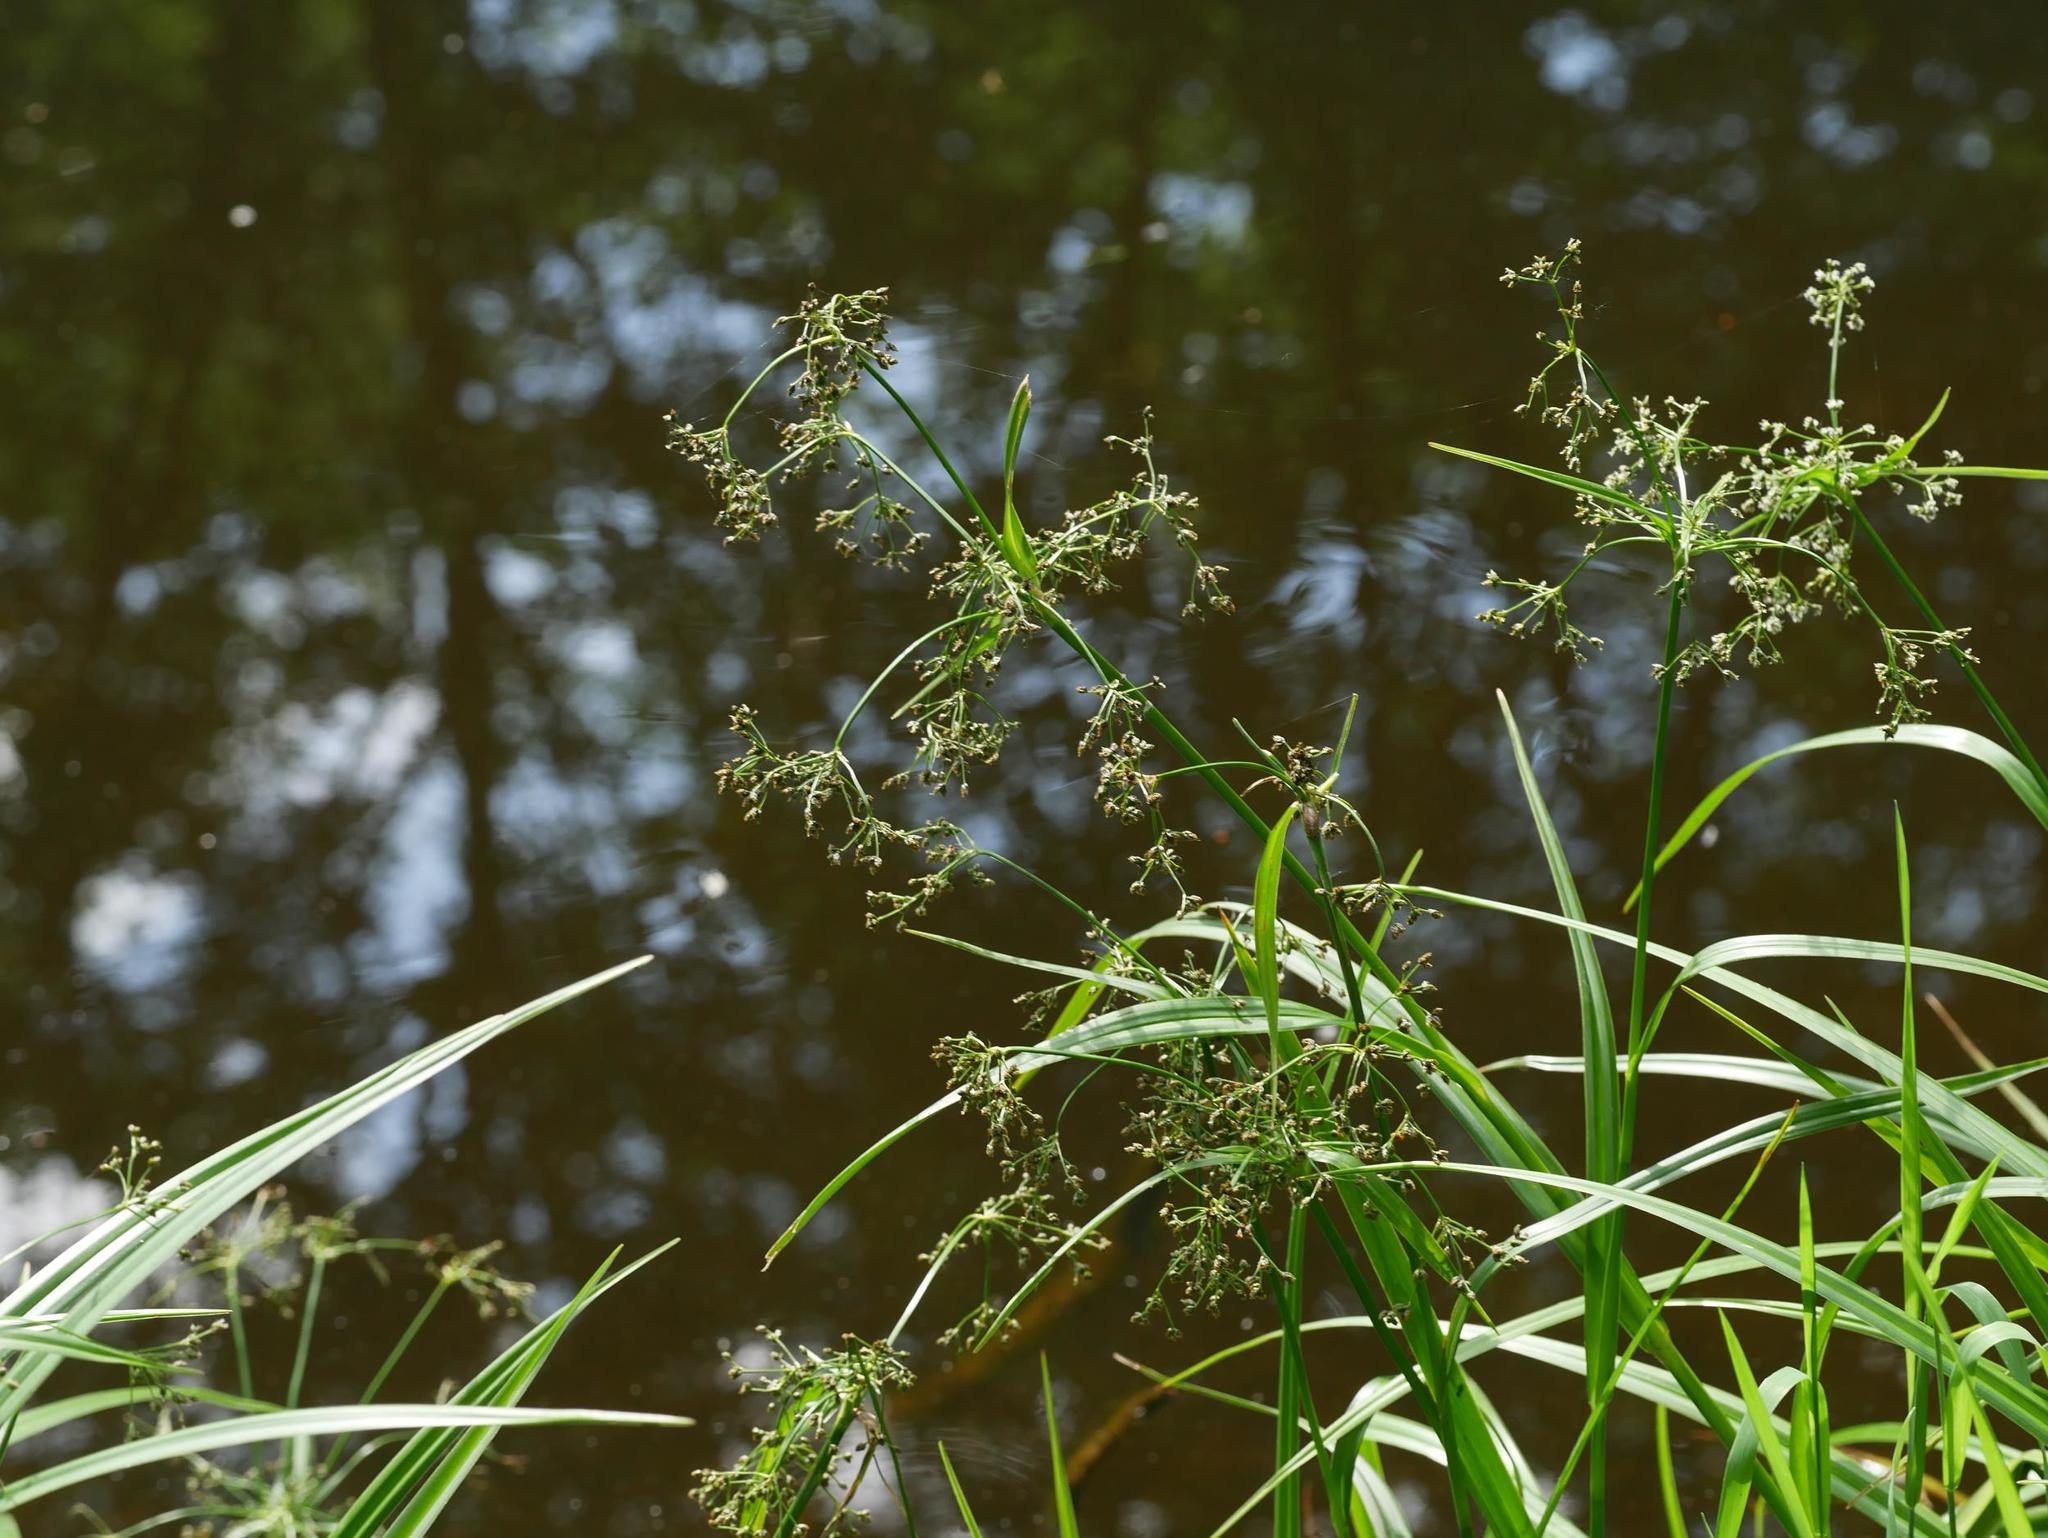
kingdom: Plantae
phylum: Tracheophyta
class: Liliopsida
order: Poales
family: Cyperaceae
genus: Scirpus
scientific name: Scirpus sylvaticus
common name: Wood club-rush
